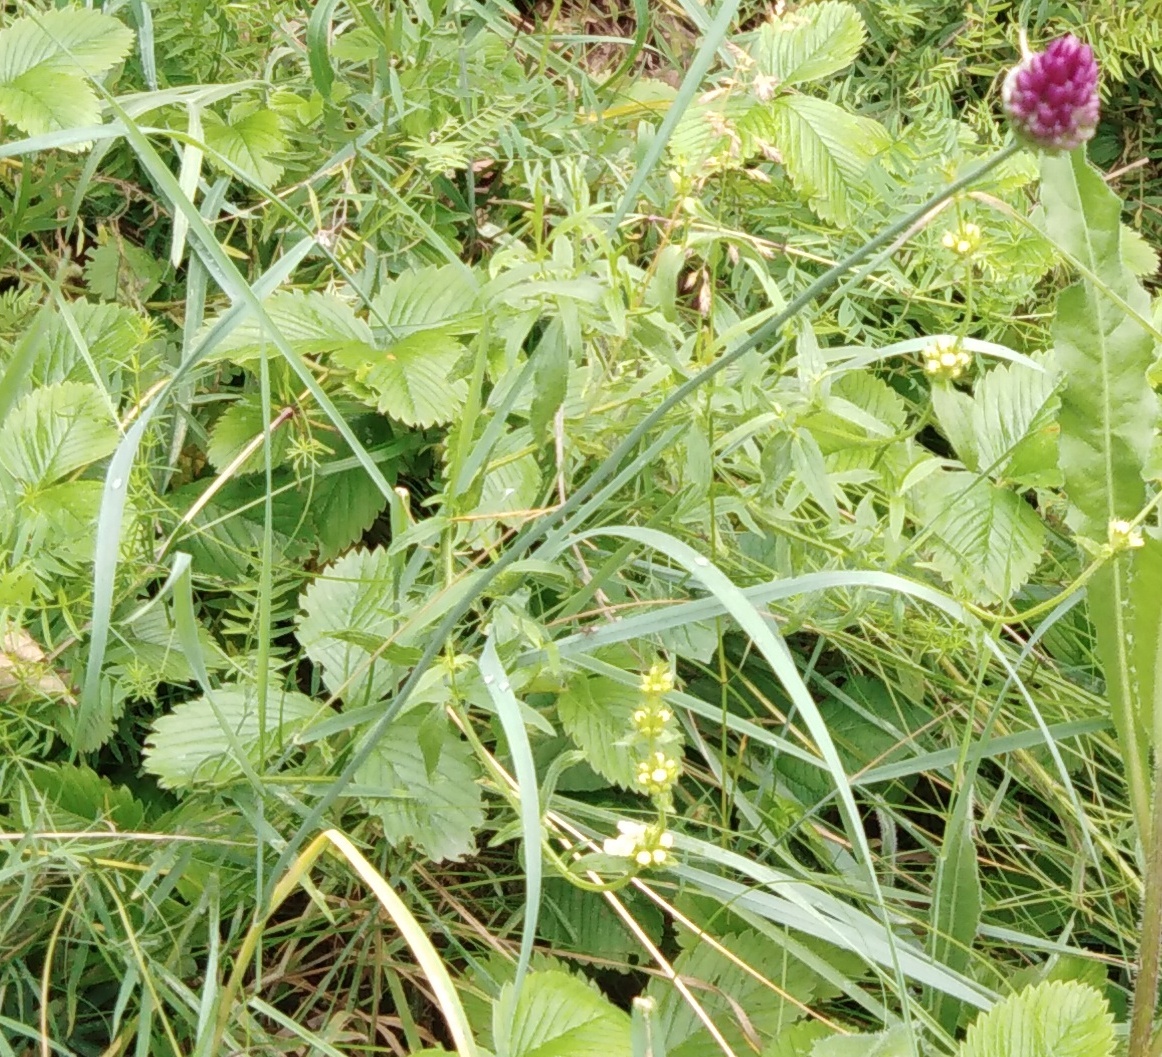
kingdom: Plantae
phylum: Tracheophyta
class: Liliopsida
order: Asparagales
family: Amaryllidaceae
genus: Allium
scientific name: Allium rotundum
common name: Sand leek
